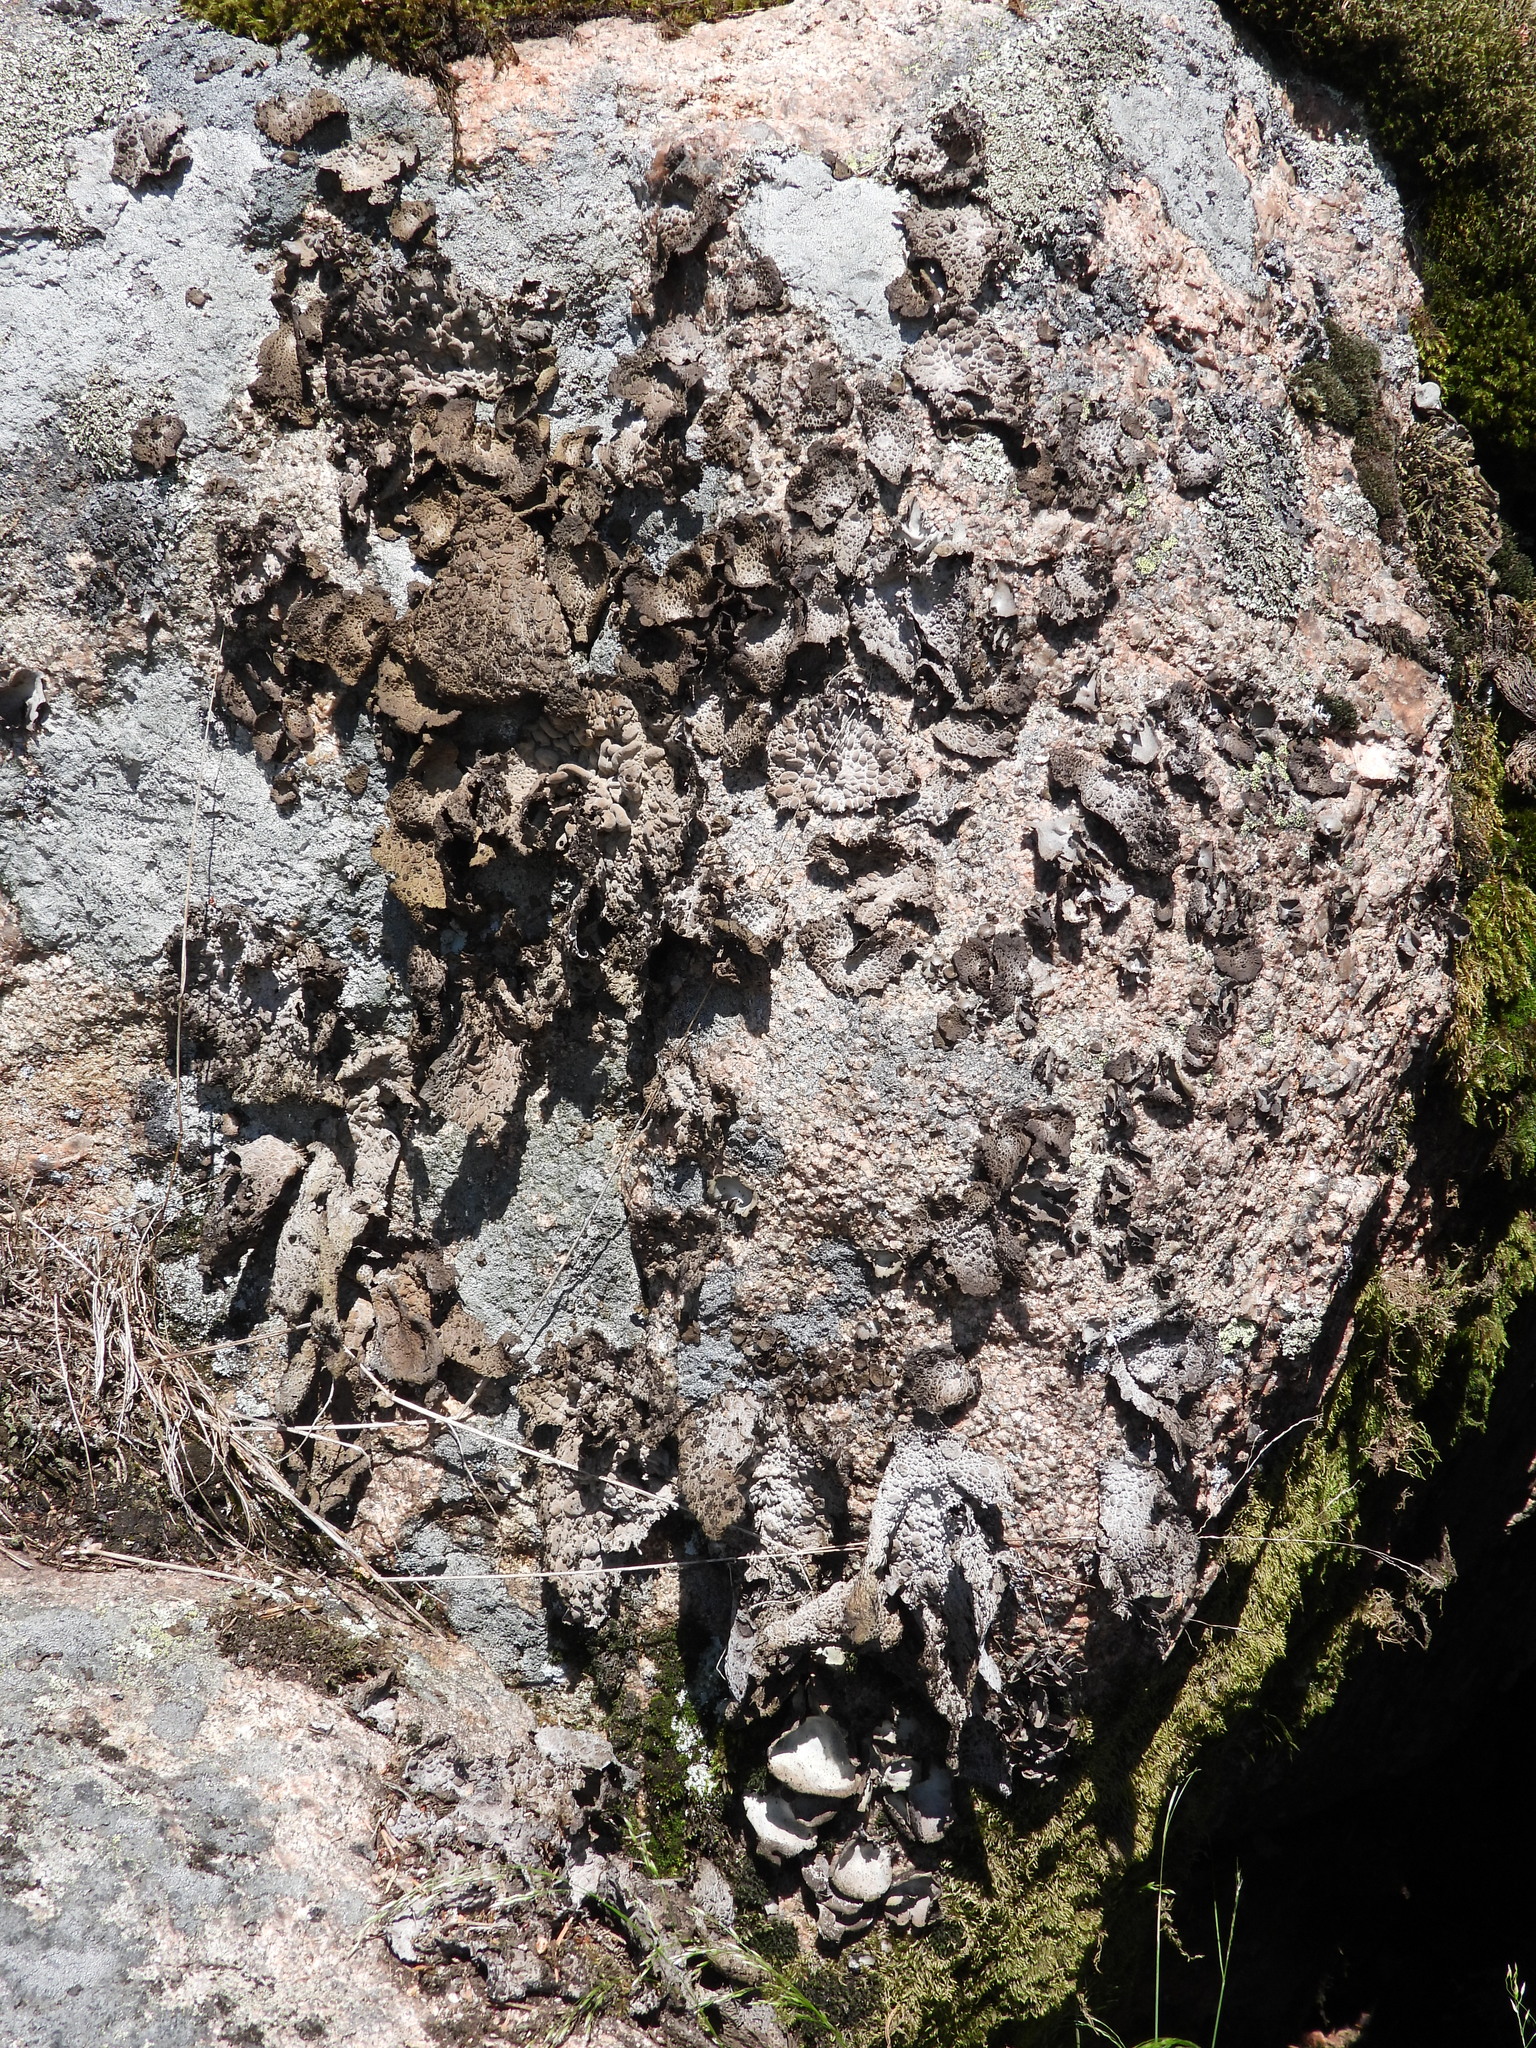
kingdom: Fungi
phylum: Ascomycota
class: Lecanoromycetes
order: Umbilicariales
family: Umbilicariaceae
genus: Lasallia
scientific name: Lasallia pustulata
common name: Blistered toadskin lichen
